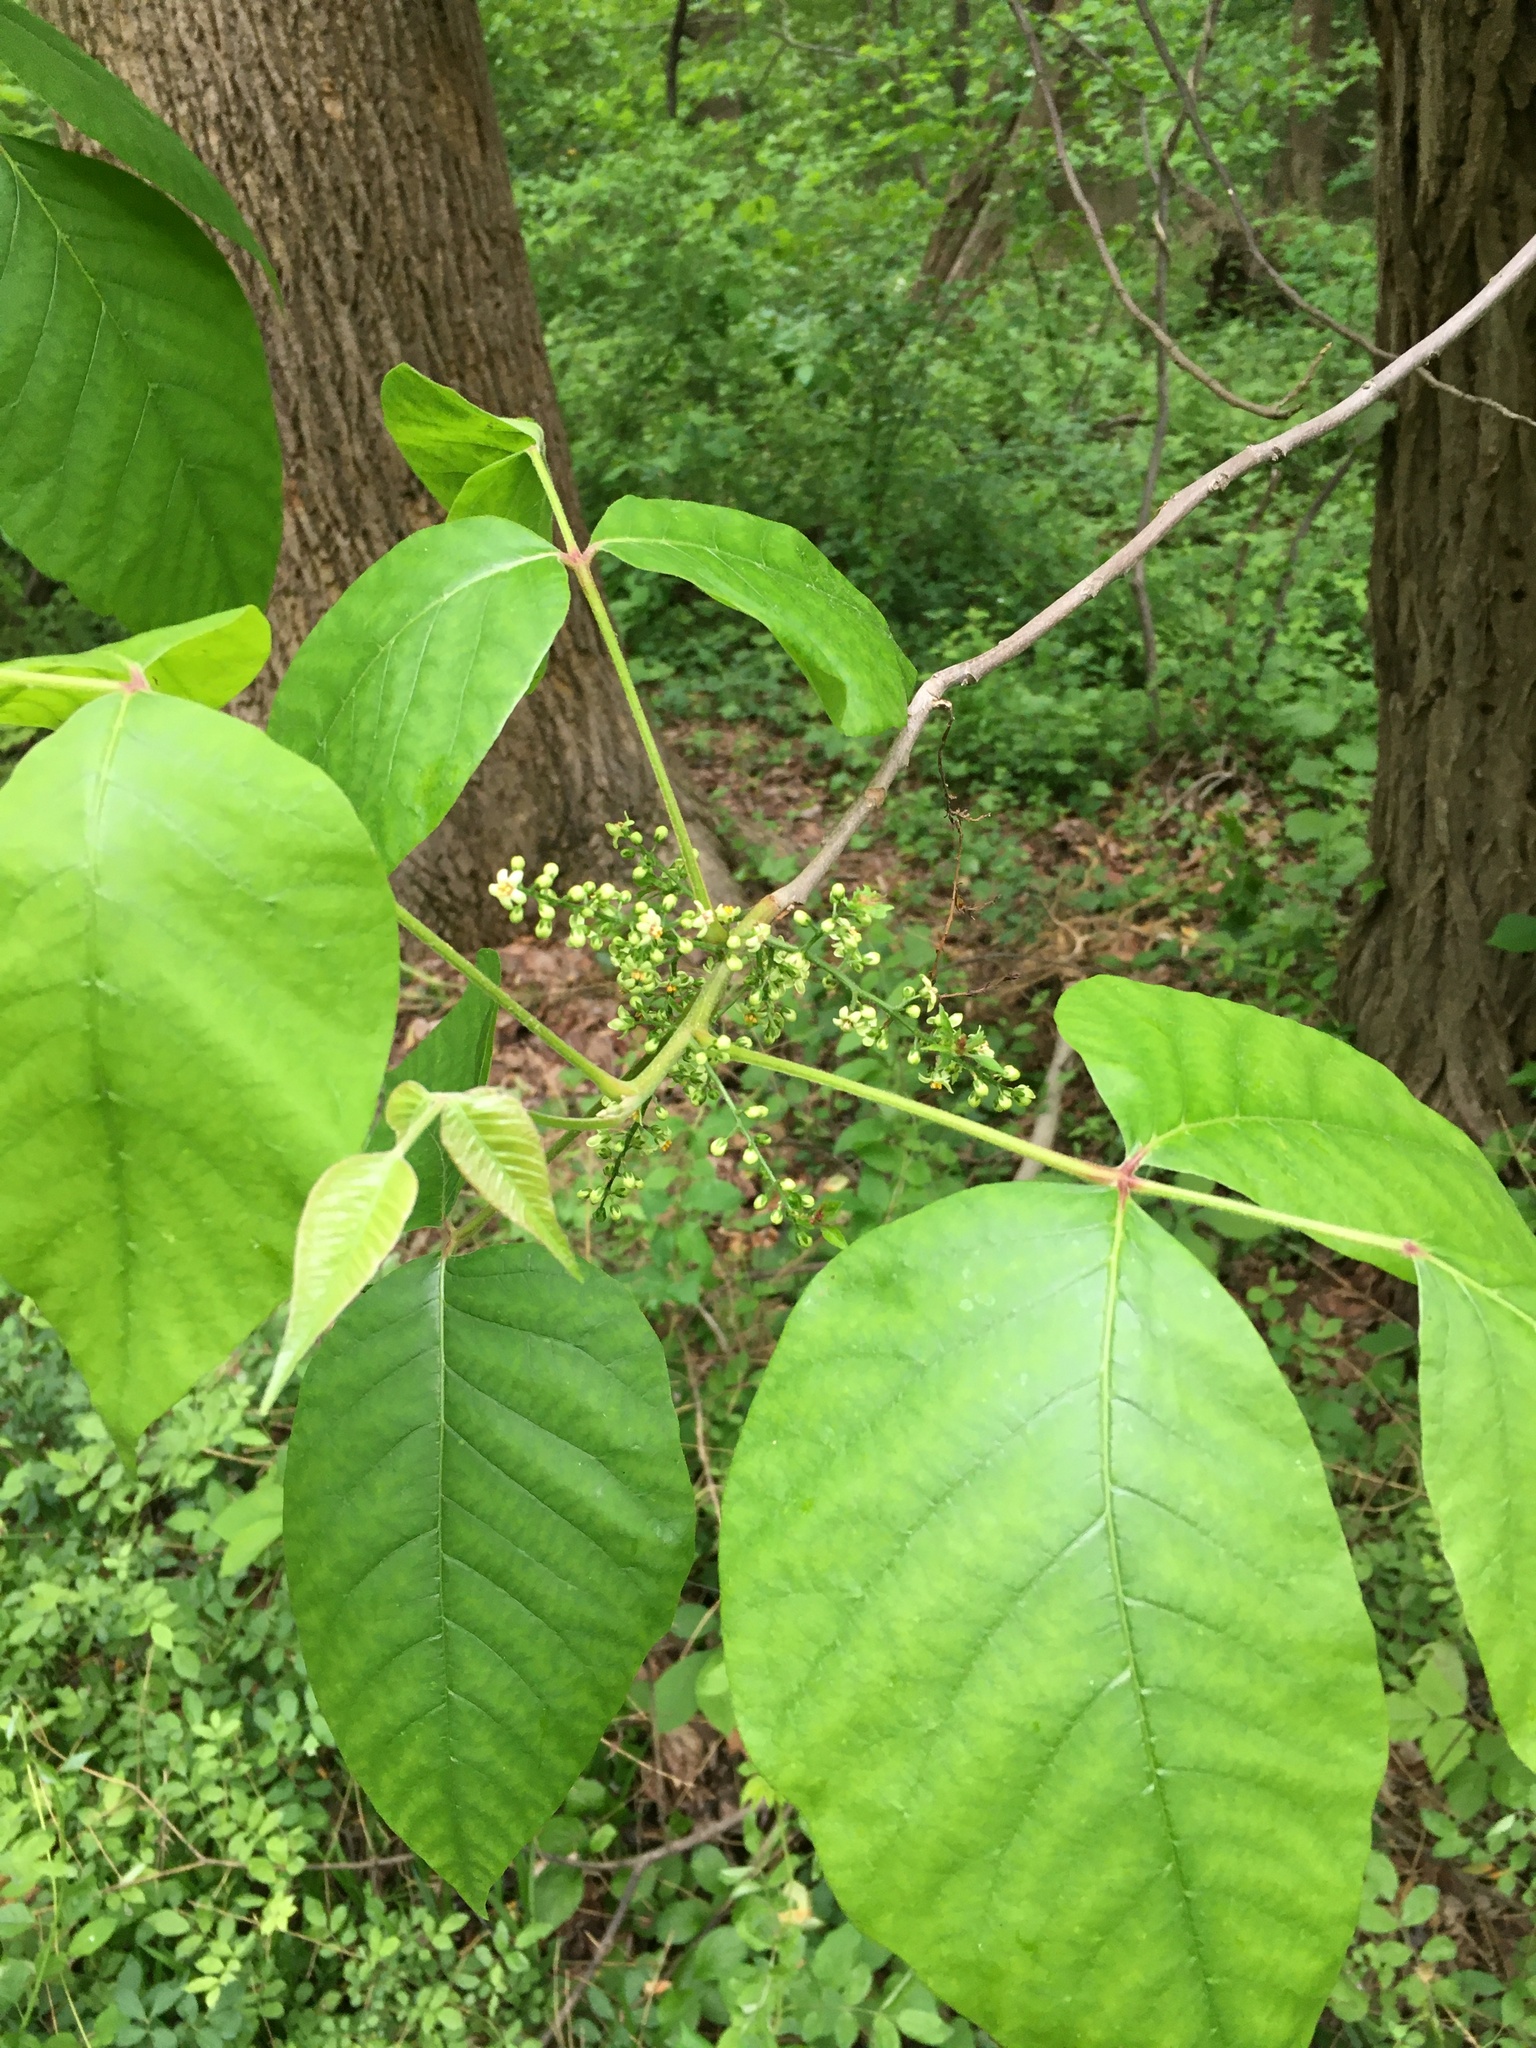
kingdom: Plantae
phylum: Tracheophyta
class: Magnoliopsida
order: Sapindales
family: Anacardiaceae
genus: Toxicodendron
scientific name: Toxicodendron radicans
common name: Poison ivy
